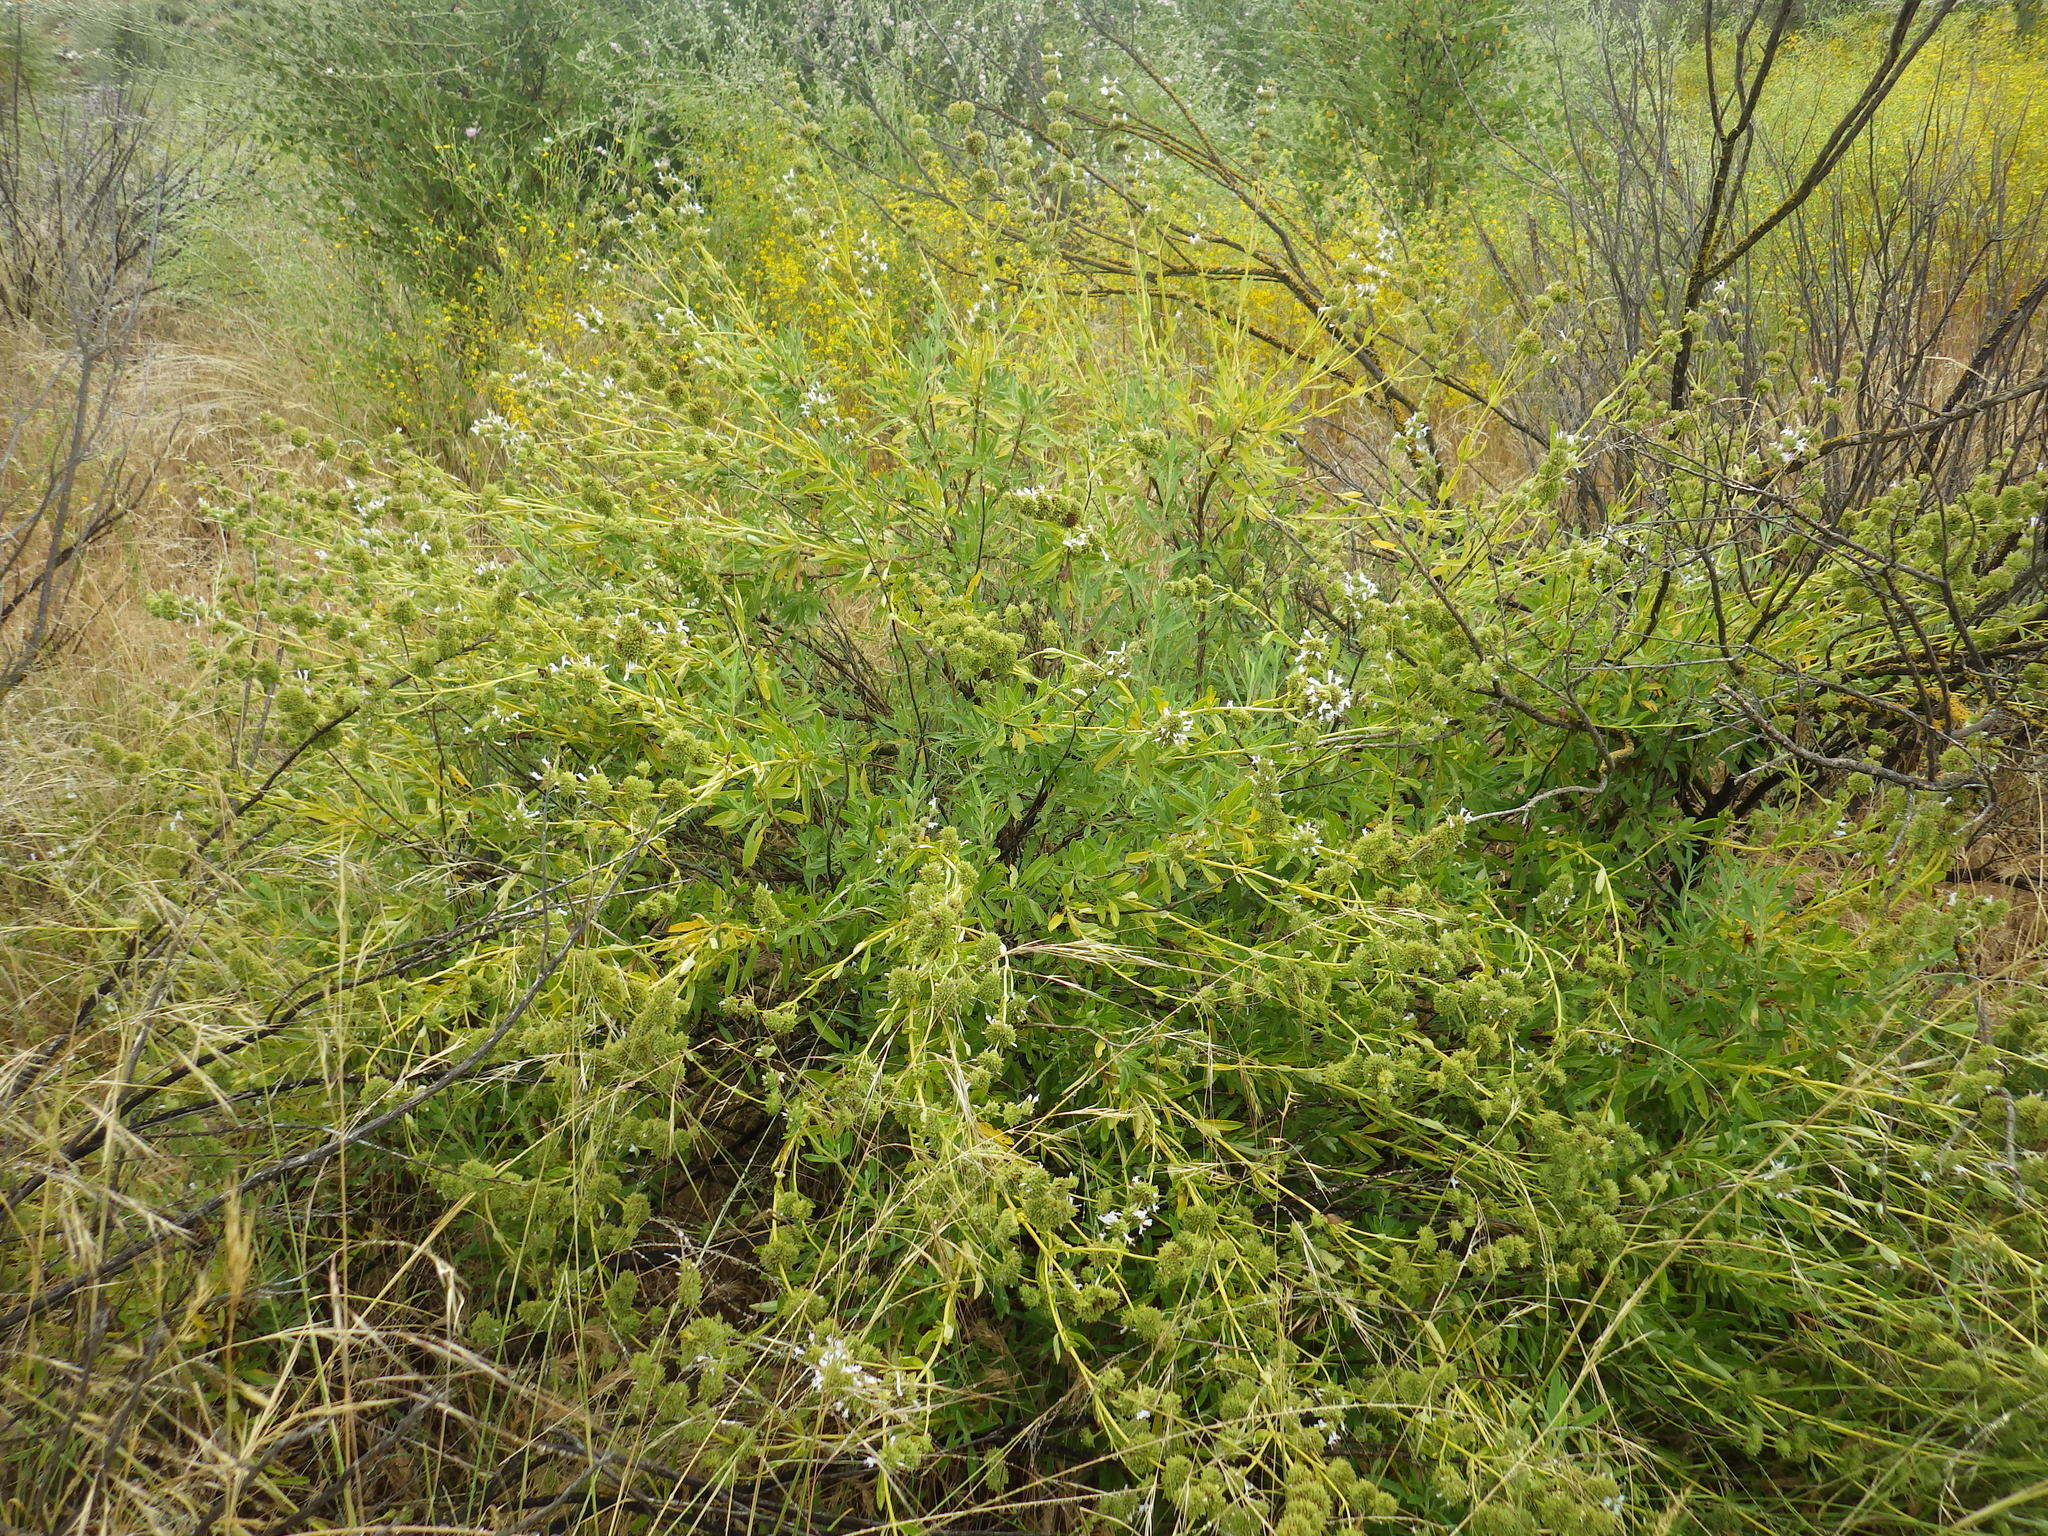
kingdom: Plantae
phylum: Tracheophyta
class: Magnoliopsida
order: Lamiales
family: Lamiaceae
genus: Salvia
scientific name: Salvia mellifera
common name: Black sage
